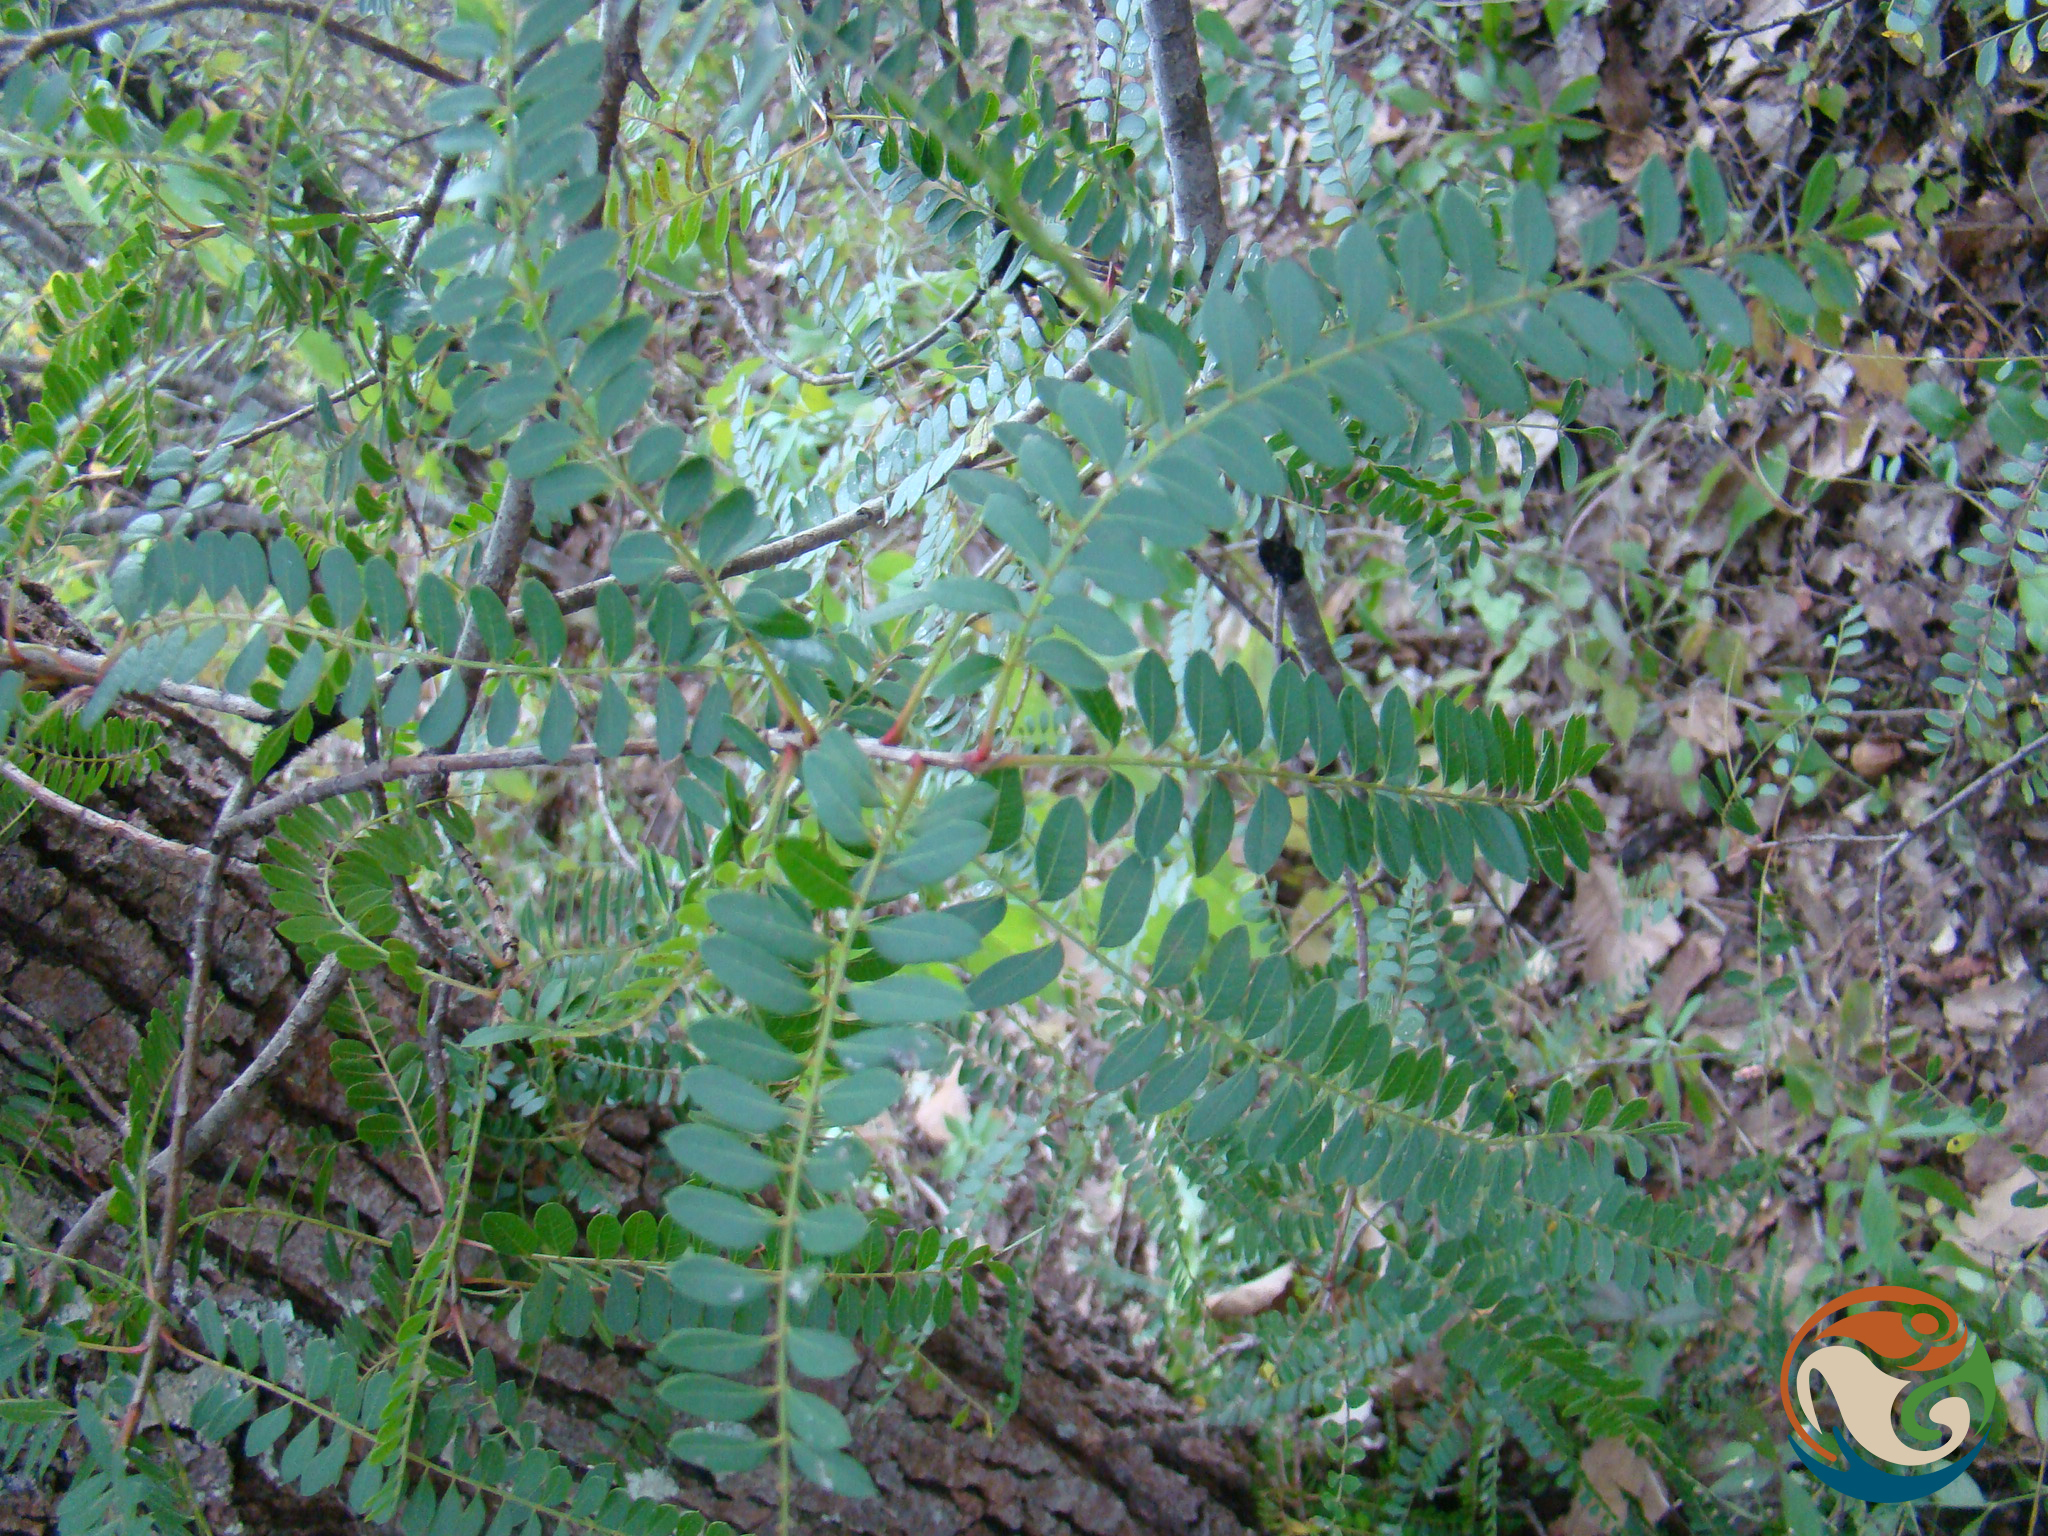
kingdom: Plantae
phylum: Tracheophyta
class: Magnoliopsida
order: Sapindales
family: Anacardiaceae
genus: Pistacia
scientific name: Pistacia mexicana
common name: Mexican pistachio
